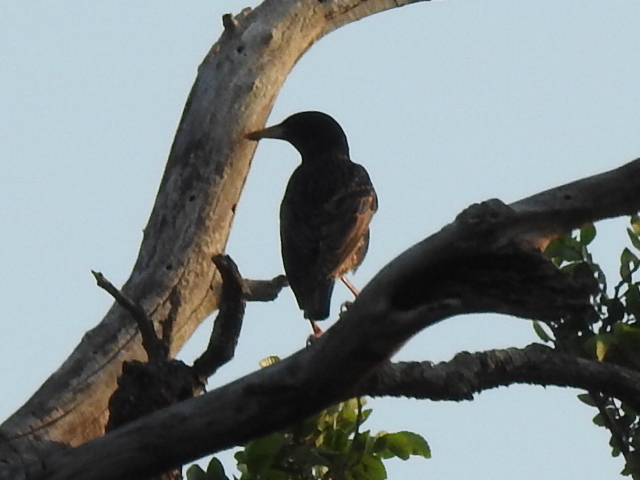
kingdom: Animalia
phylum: Chordata
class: Aves
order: Passeriformes
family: Sturnidae
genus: Sturnus
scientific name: Sturnus vulgaris
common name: Common starling
